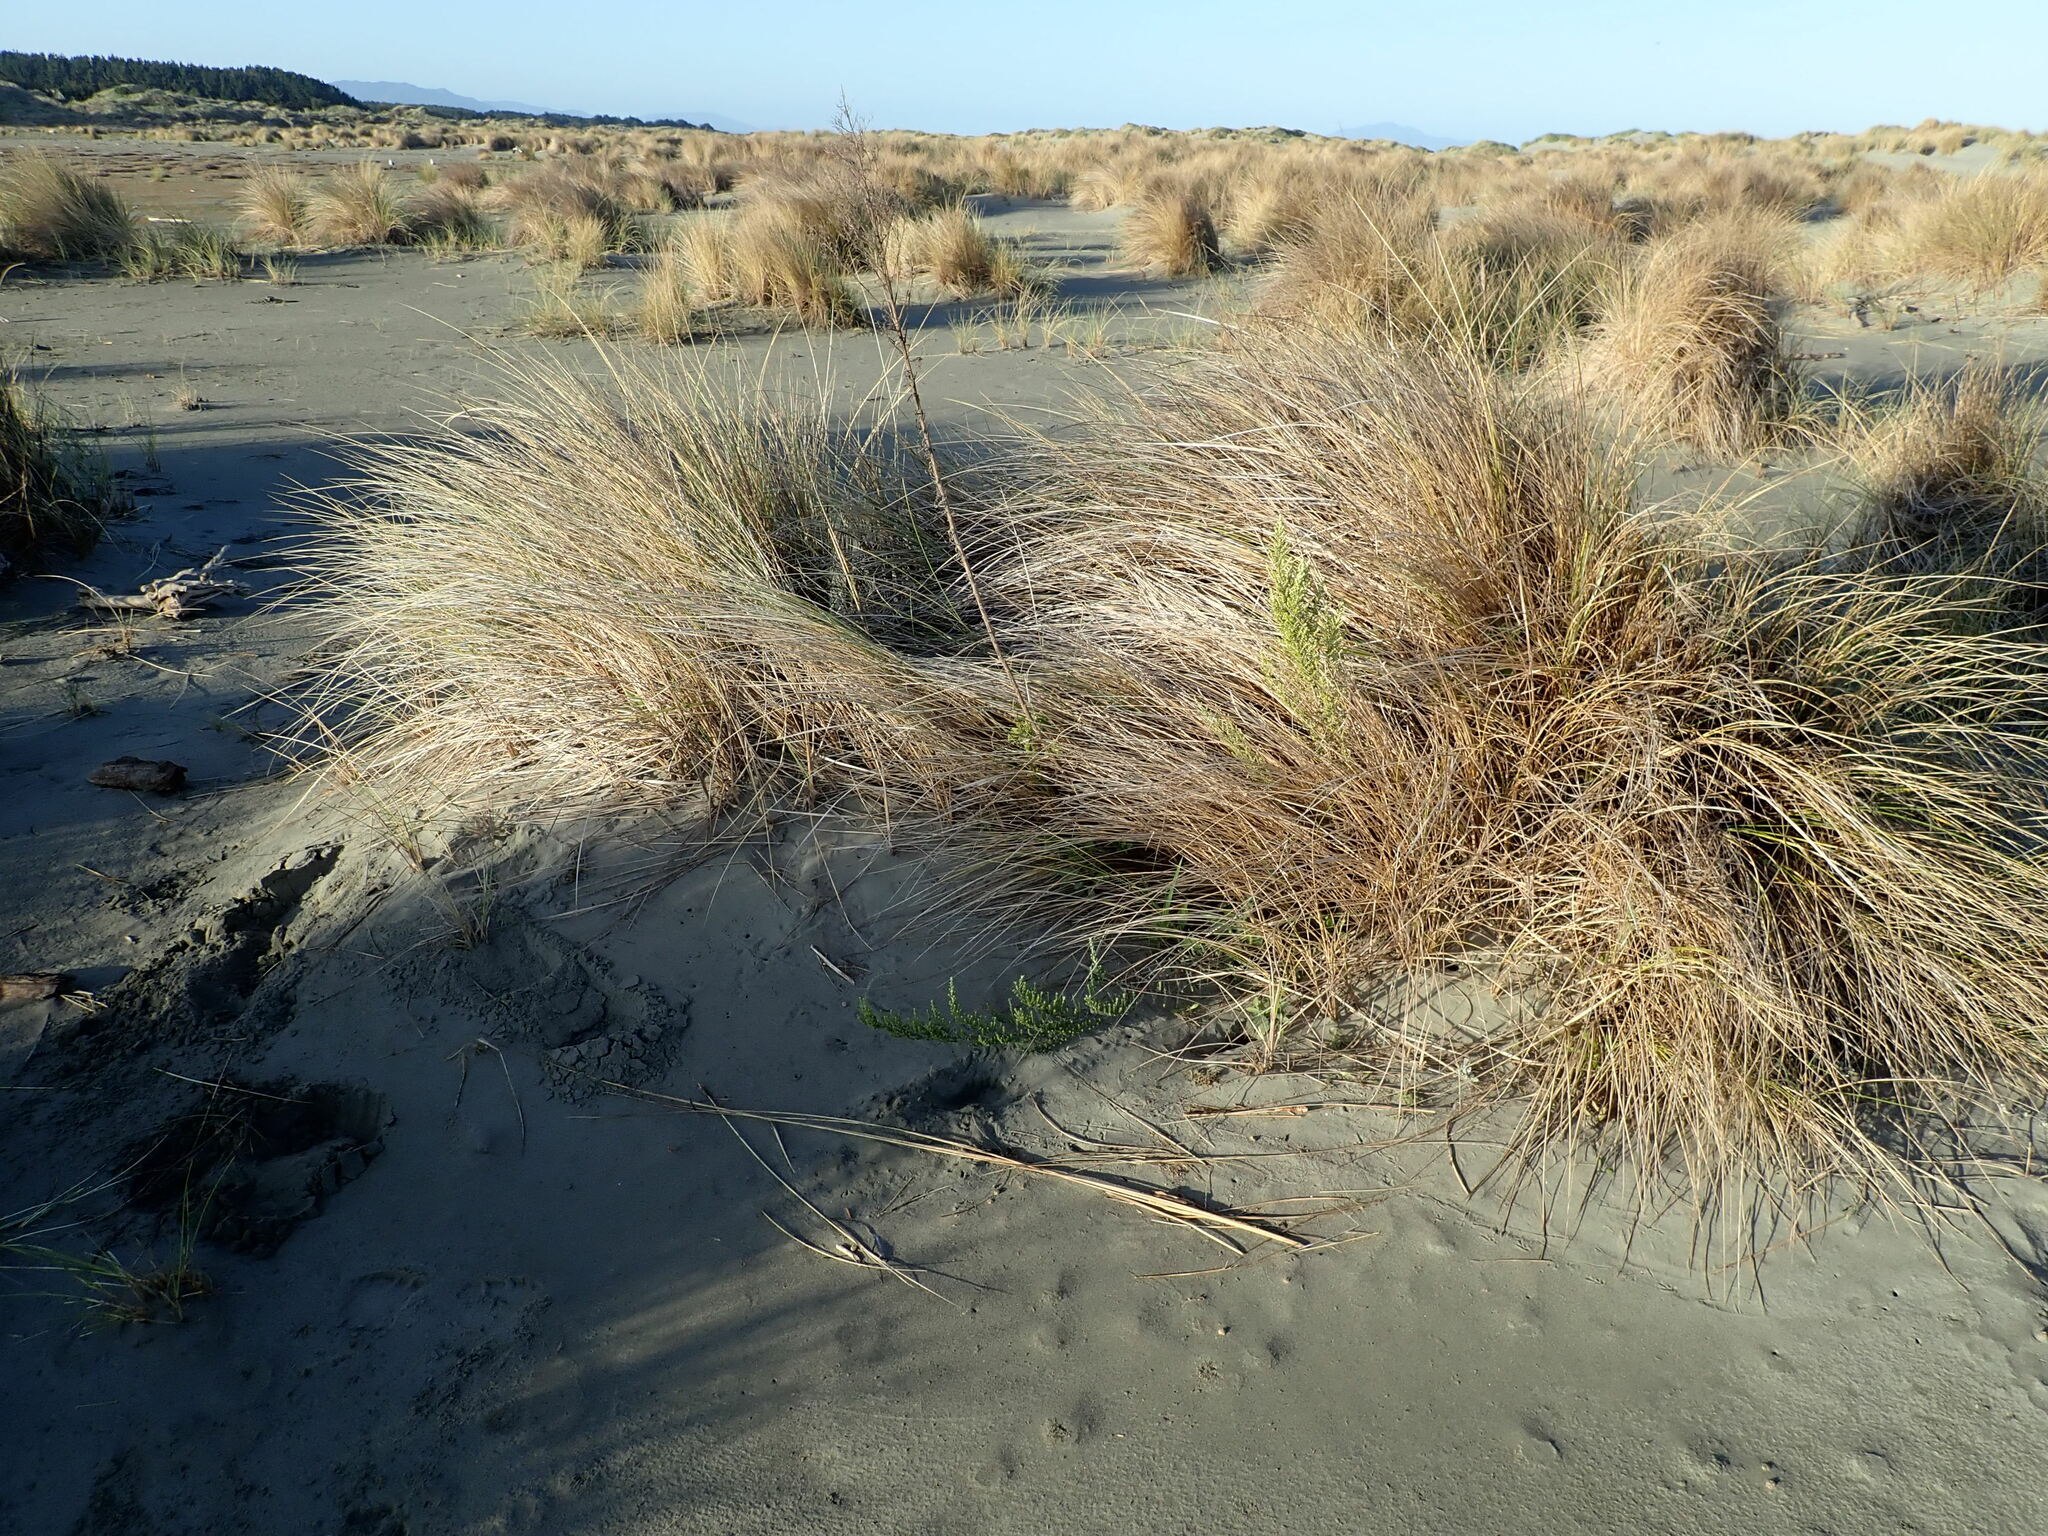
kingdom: Plantae
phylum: Tracheophyta
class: Magnoliopsida
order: Asterales
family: Asteraceae
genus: Ozothamnus
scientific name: Ozothamnus leptophyllus
